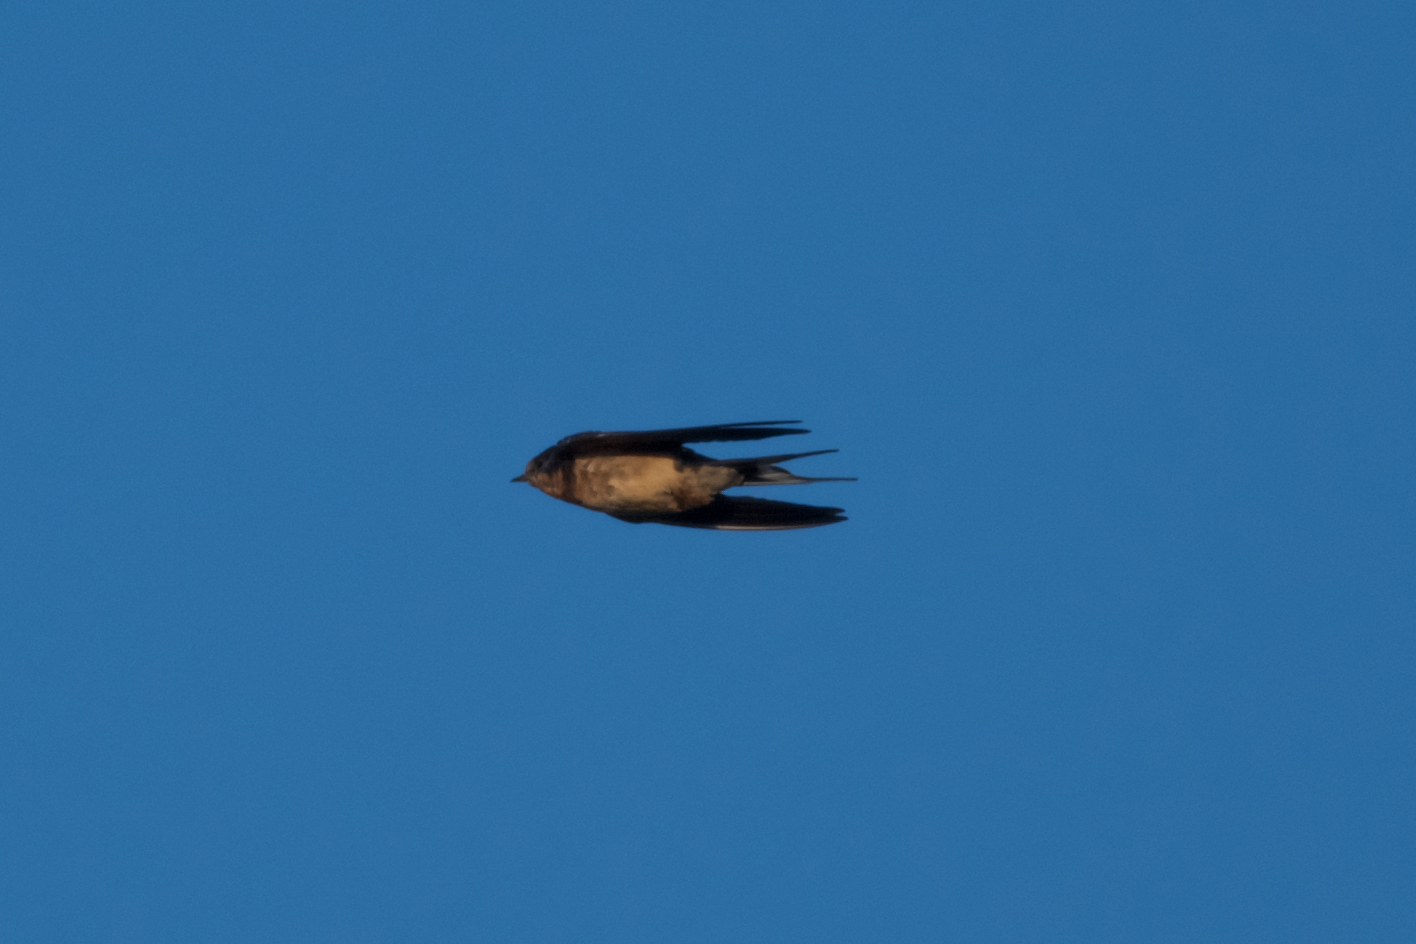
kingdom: Animalia
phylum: Chordata
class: Aves
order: Passeriformes
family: Hirundinidae
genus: Hirundo
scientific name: Hirundo rustica
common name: Barn swallow
